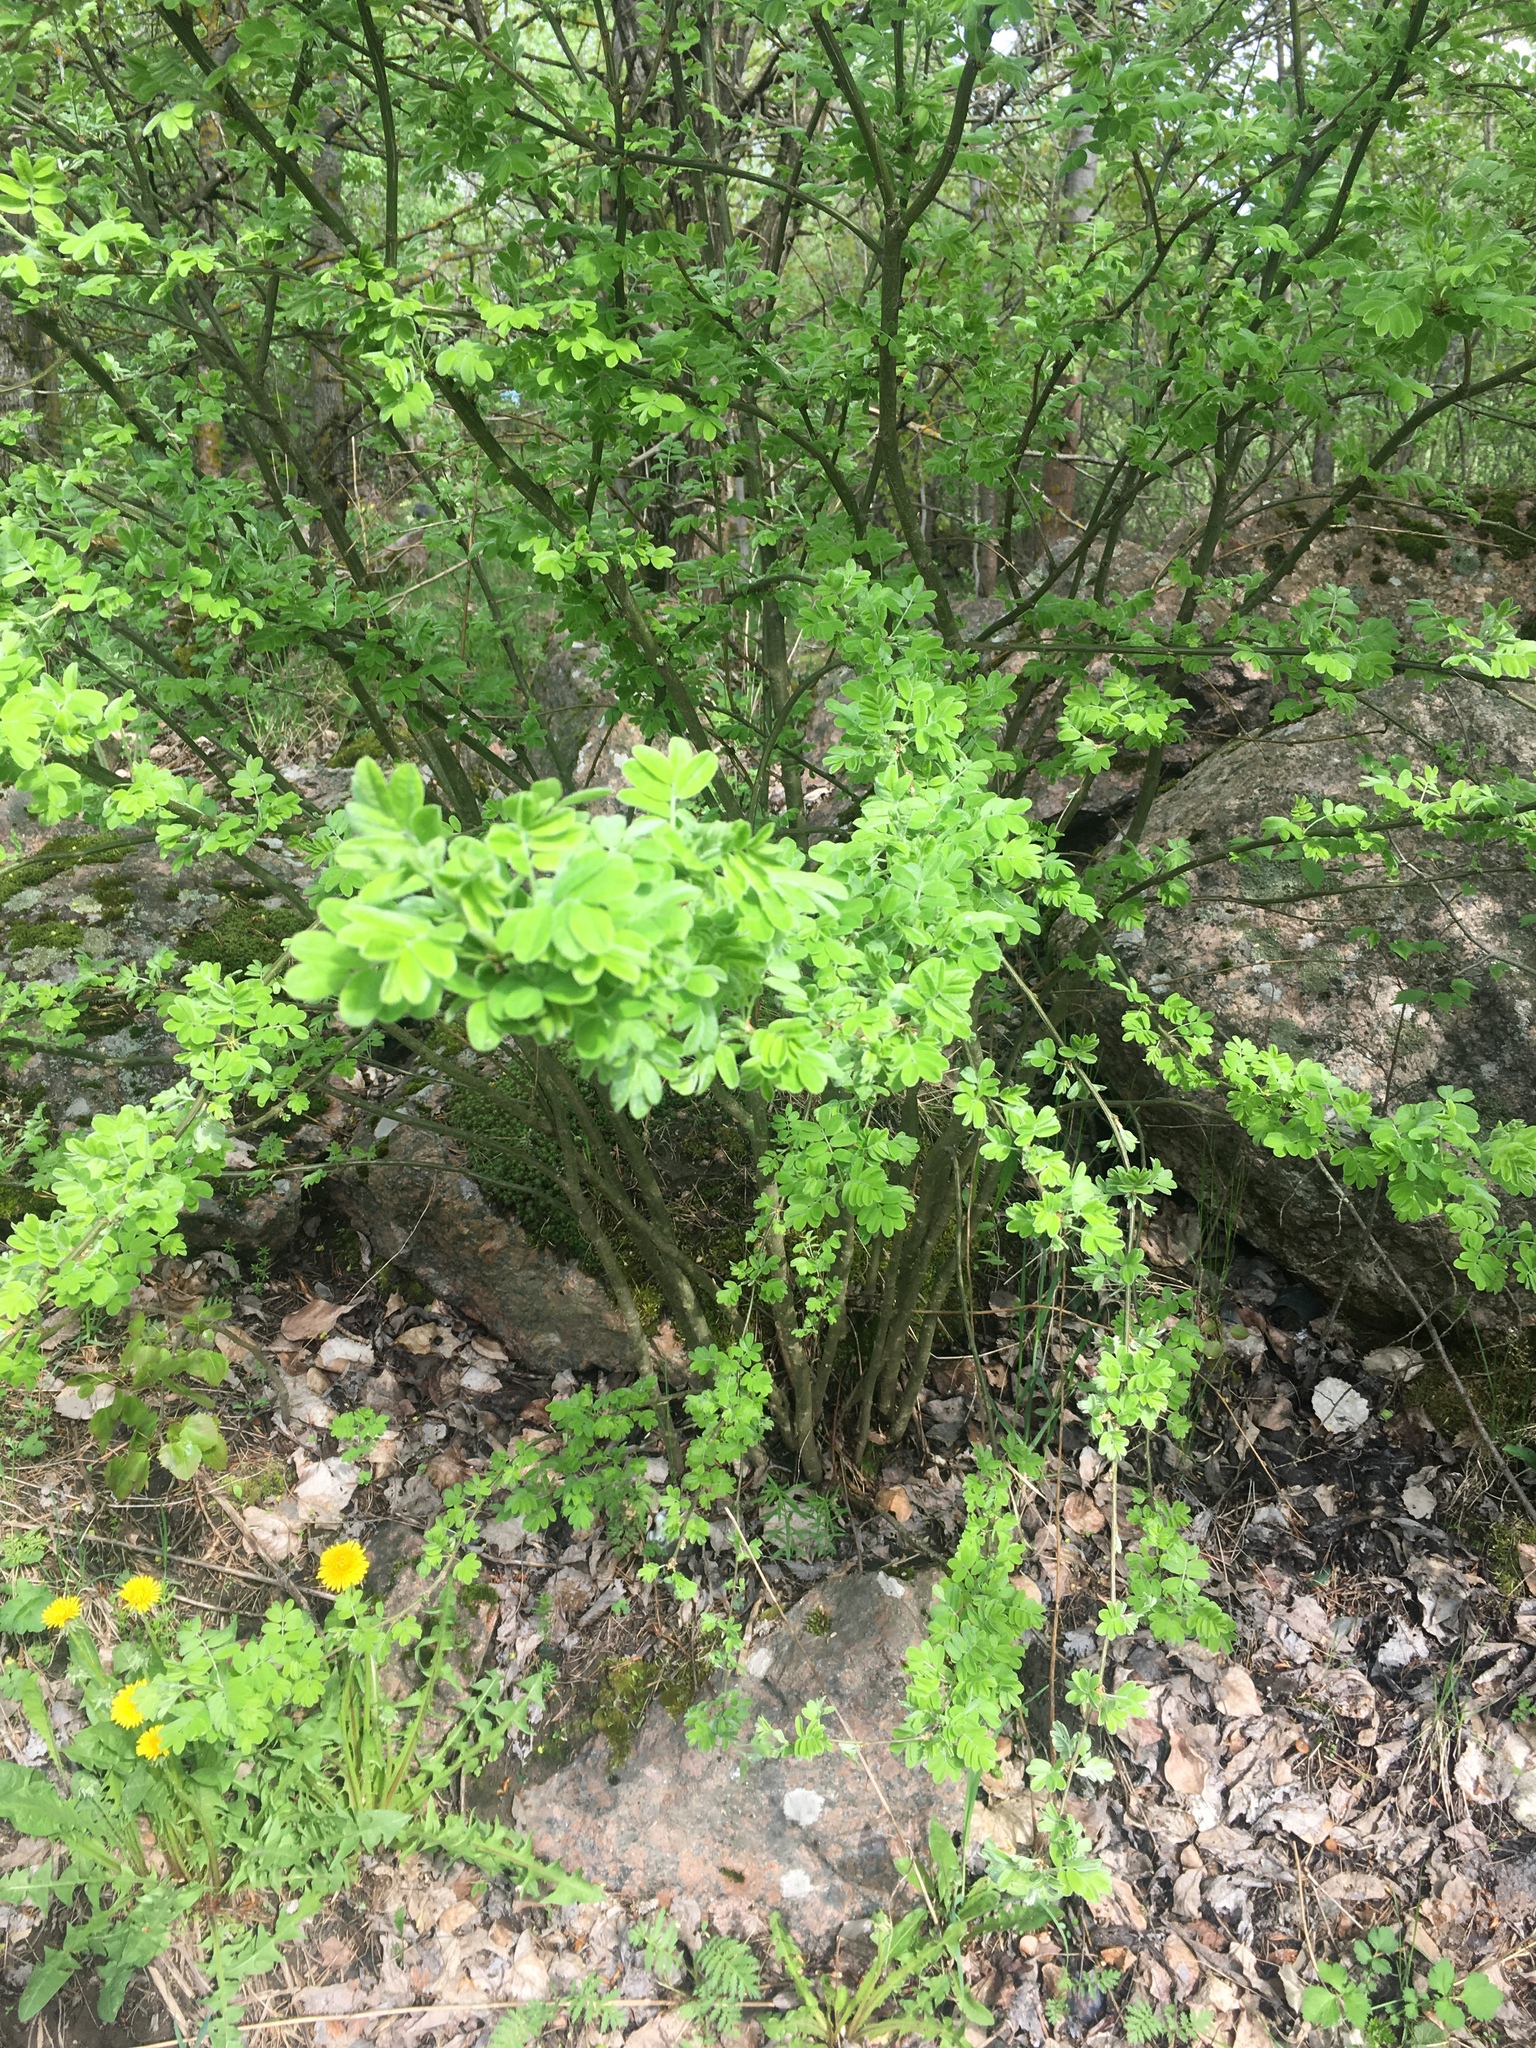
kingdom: Plantae
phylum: Tracheophyta
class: Magnoliopsida
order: Fabales
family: Fabaceae
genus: Caragana
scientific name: Caragana arborescens
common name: Siberian peashrub
